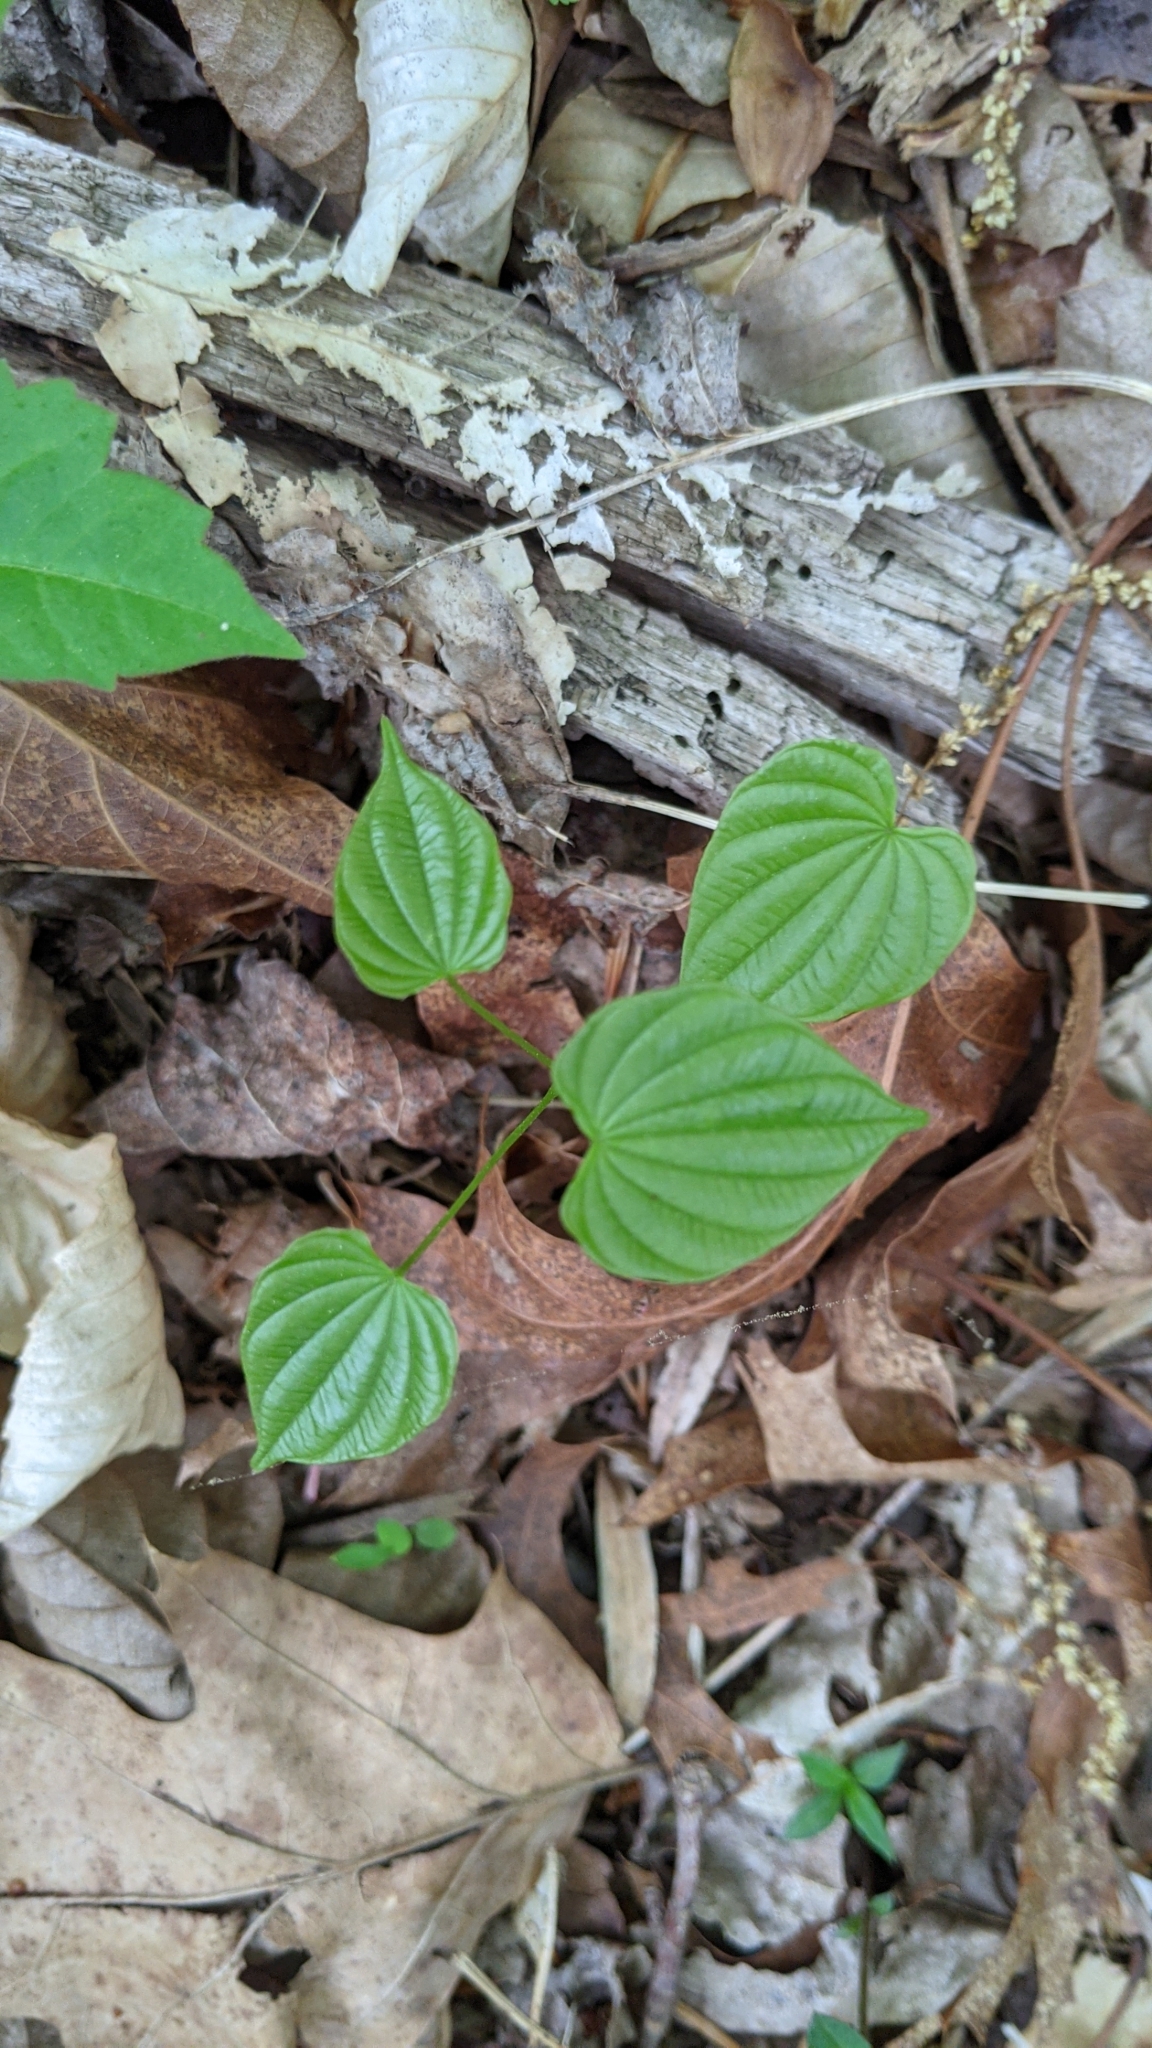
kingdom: Plantae
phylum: Tracheophyta
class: Liliopsida
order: Dioscoreales
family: Dioscoreaceae
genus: Dioscorea
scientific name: Dioscorea villosa
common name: Wild yam
